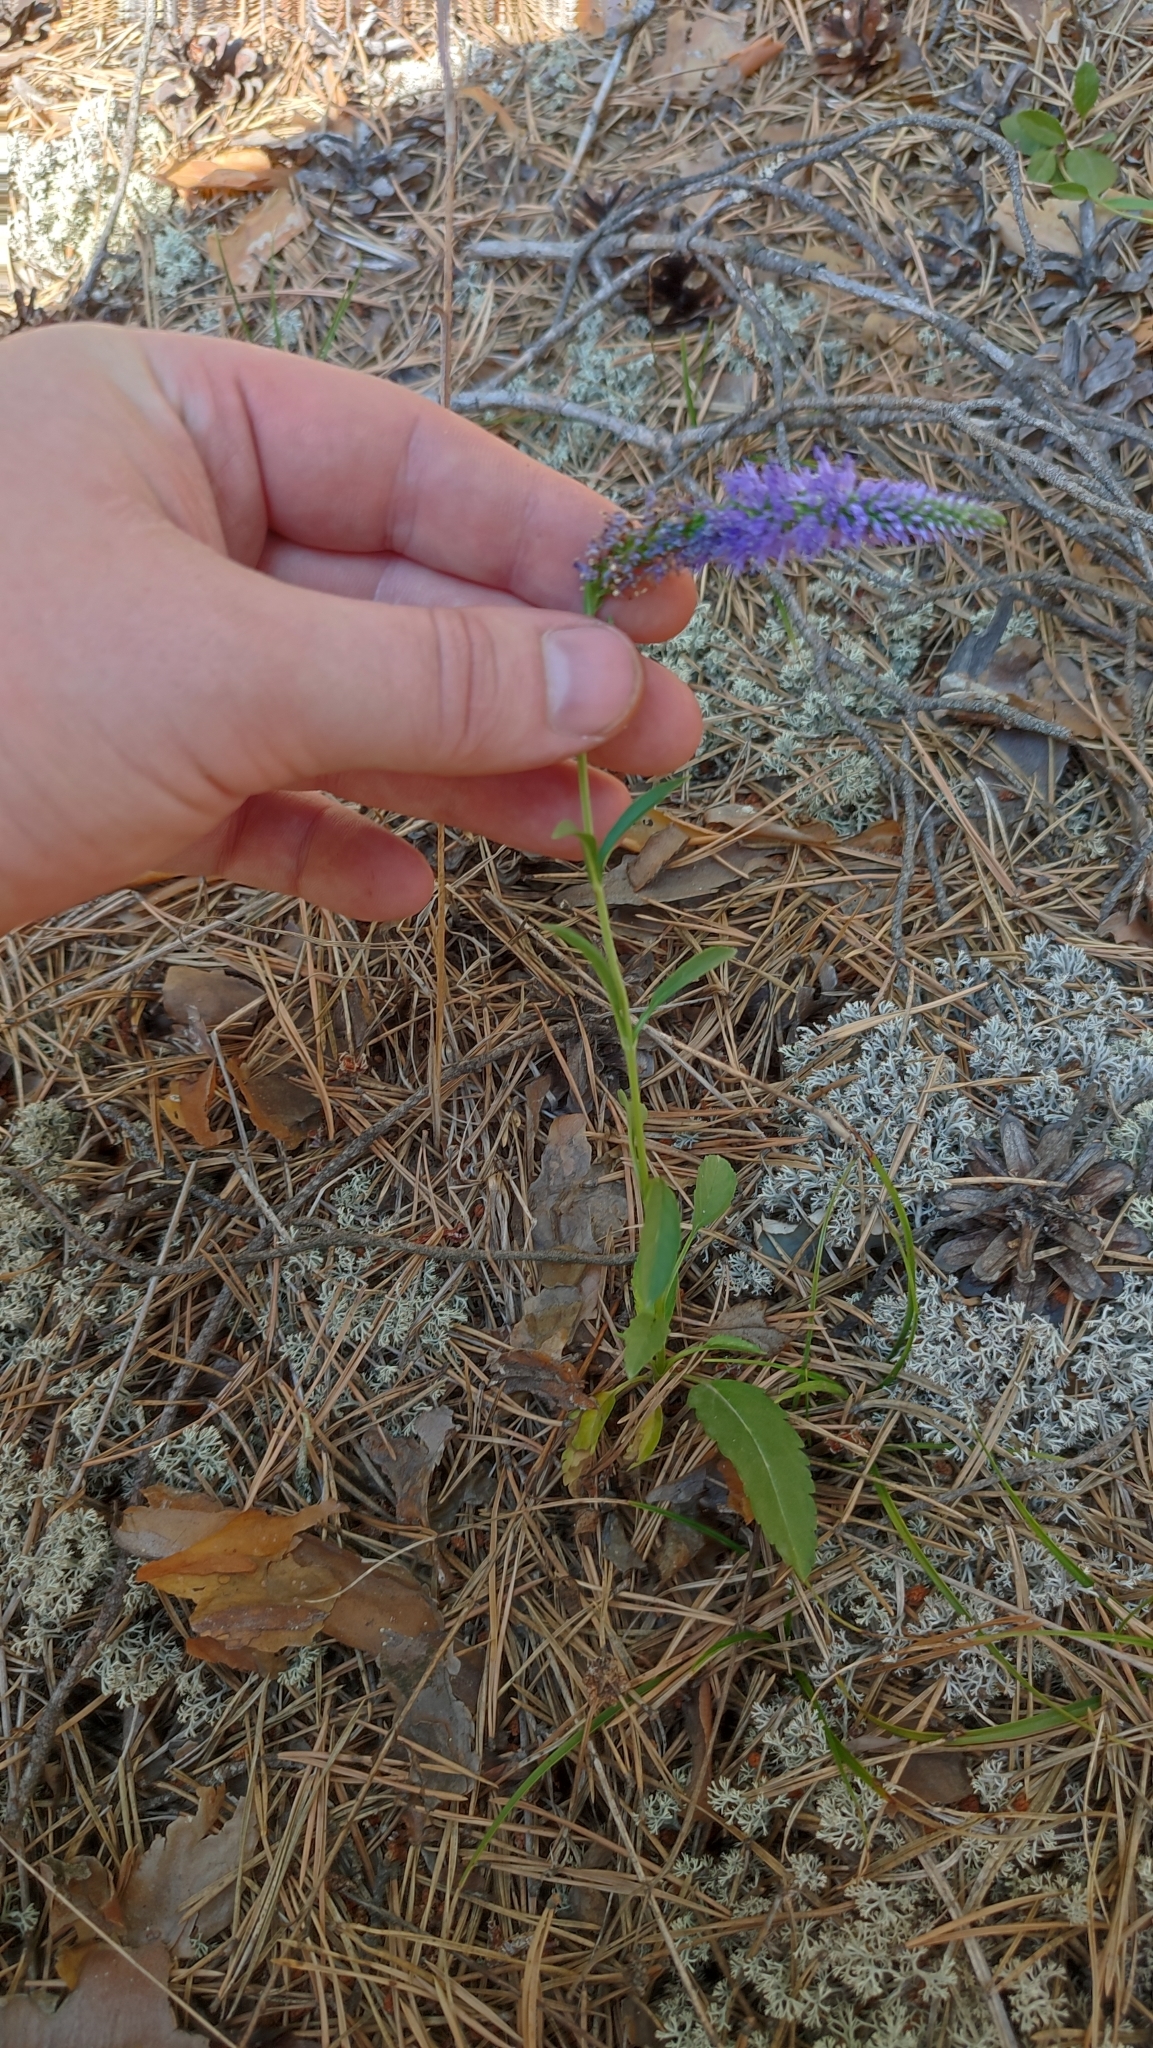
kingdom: Plantae
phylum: Tracheophyta
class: Magnoliopsida
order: Lamiales
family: Plantaginaceae
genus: Veronica
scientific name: Veronica spicata
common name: Spiked speedwell
